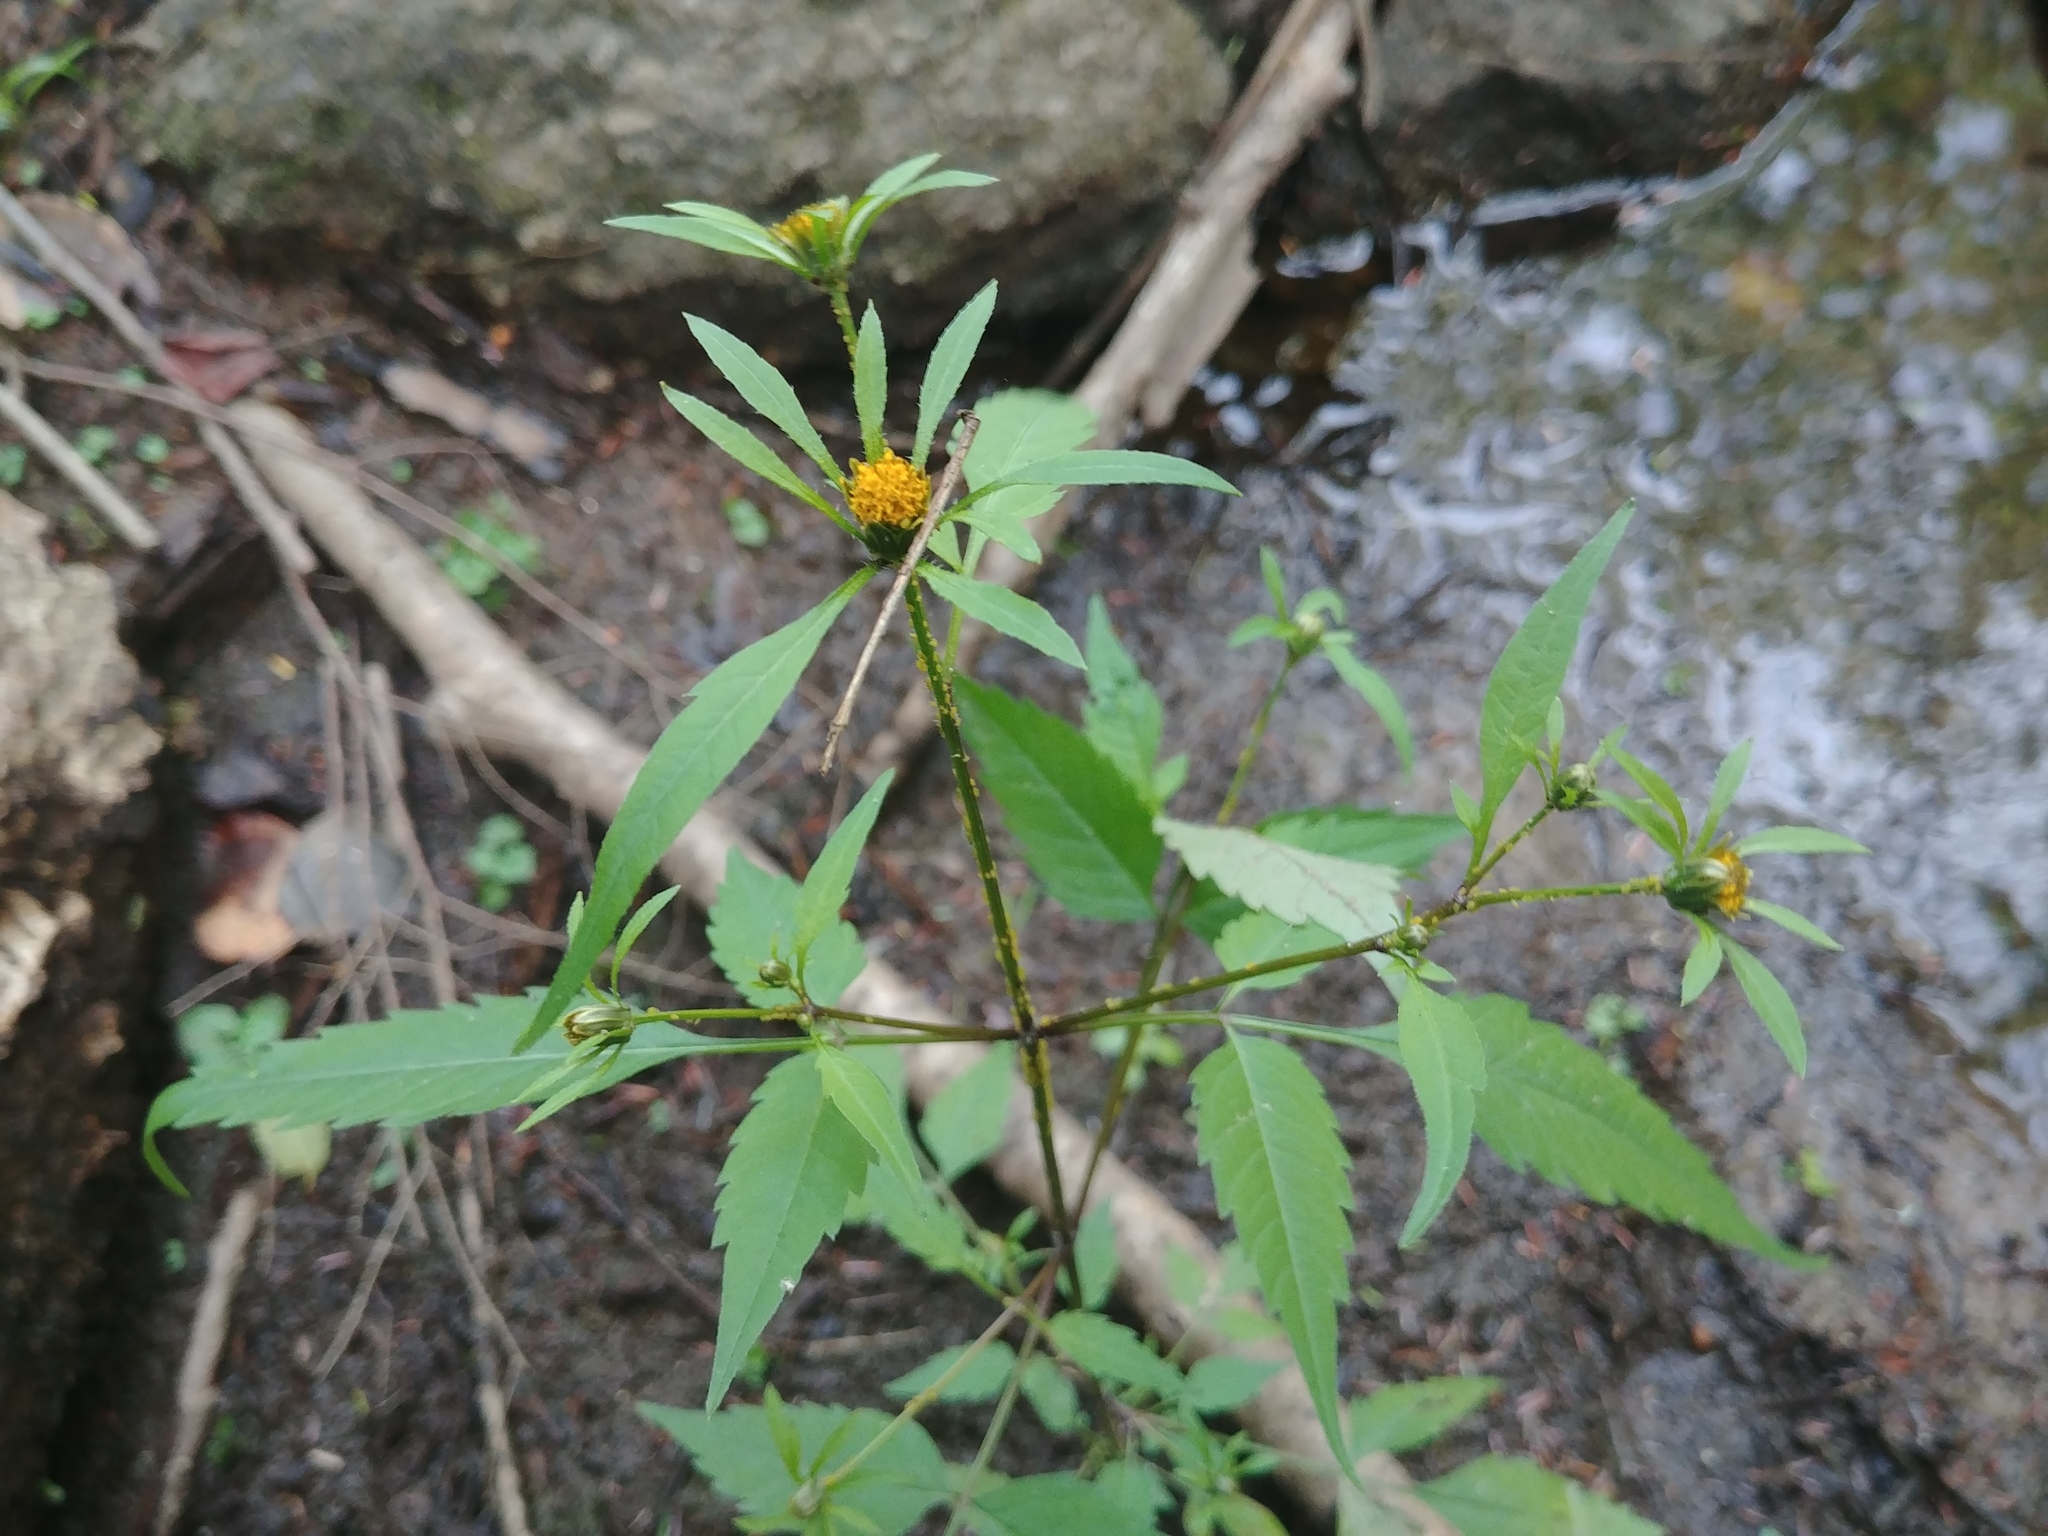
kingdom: Plantae
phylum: Tracheophyta
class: Magnoliopsida
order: Asterales
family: Asteraceae
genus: Bidens
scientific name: Bidens frondosa
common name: Beggarticks
